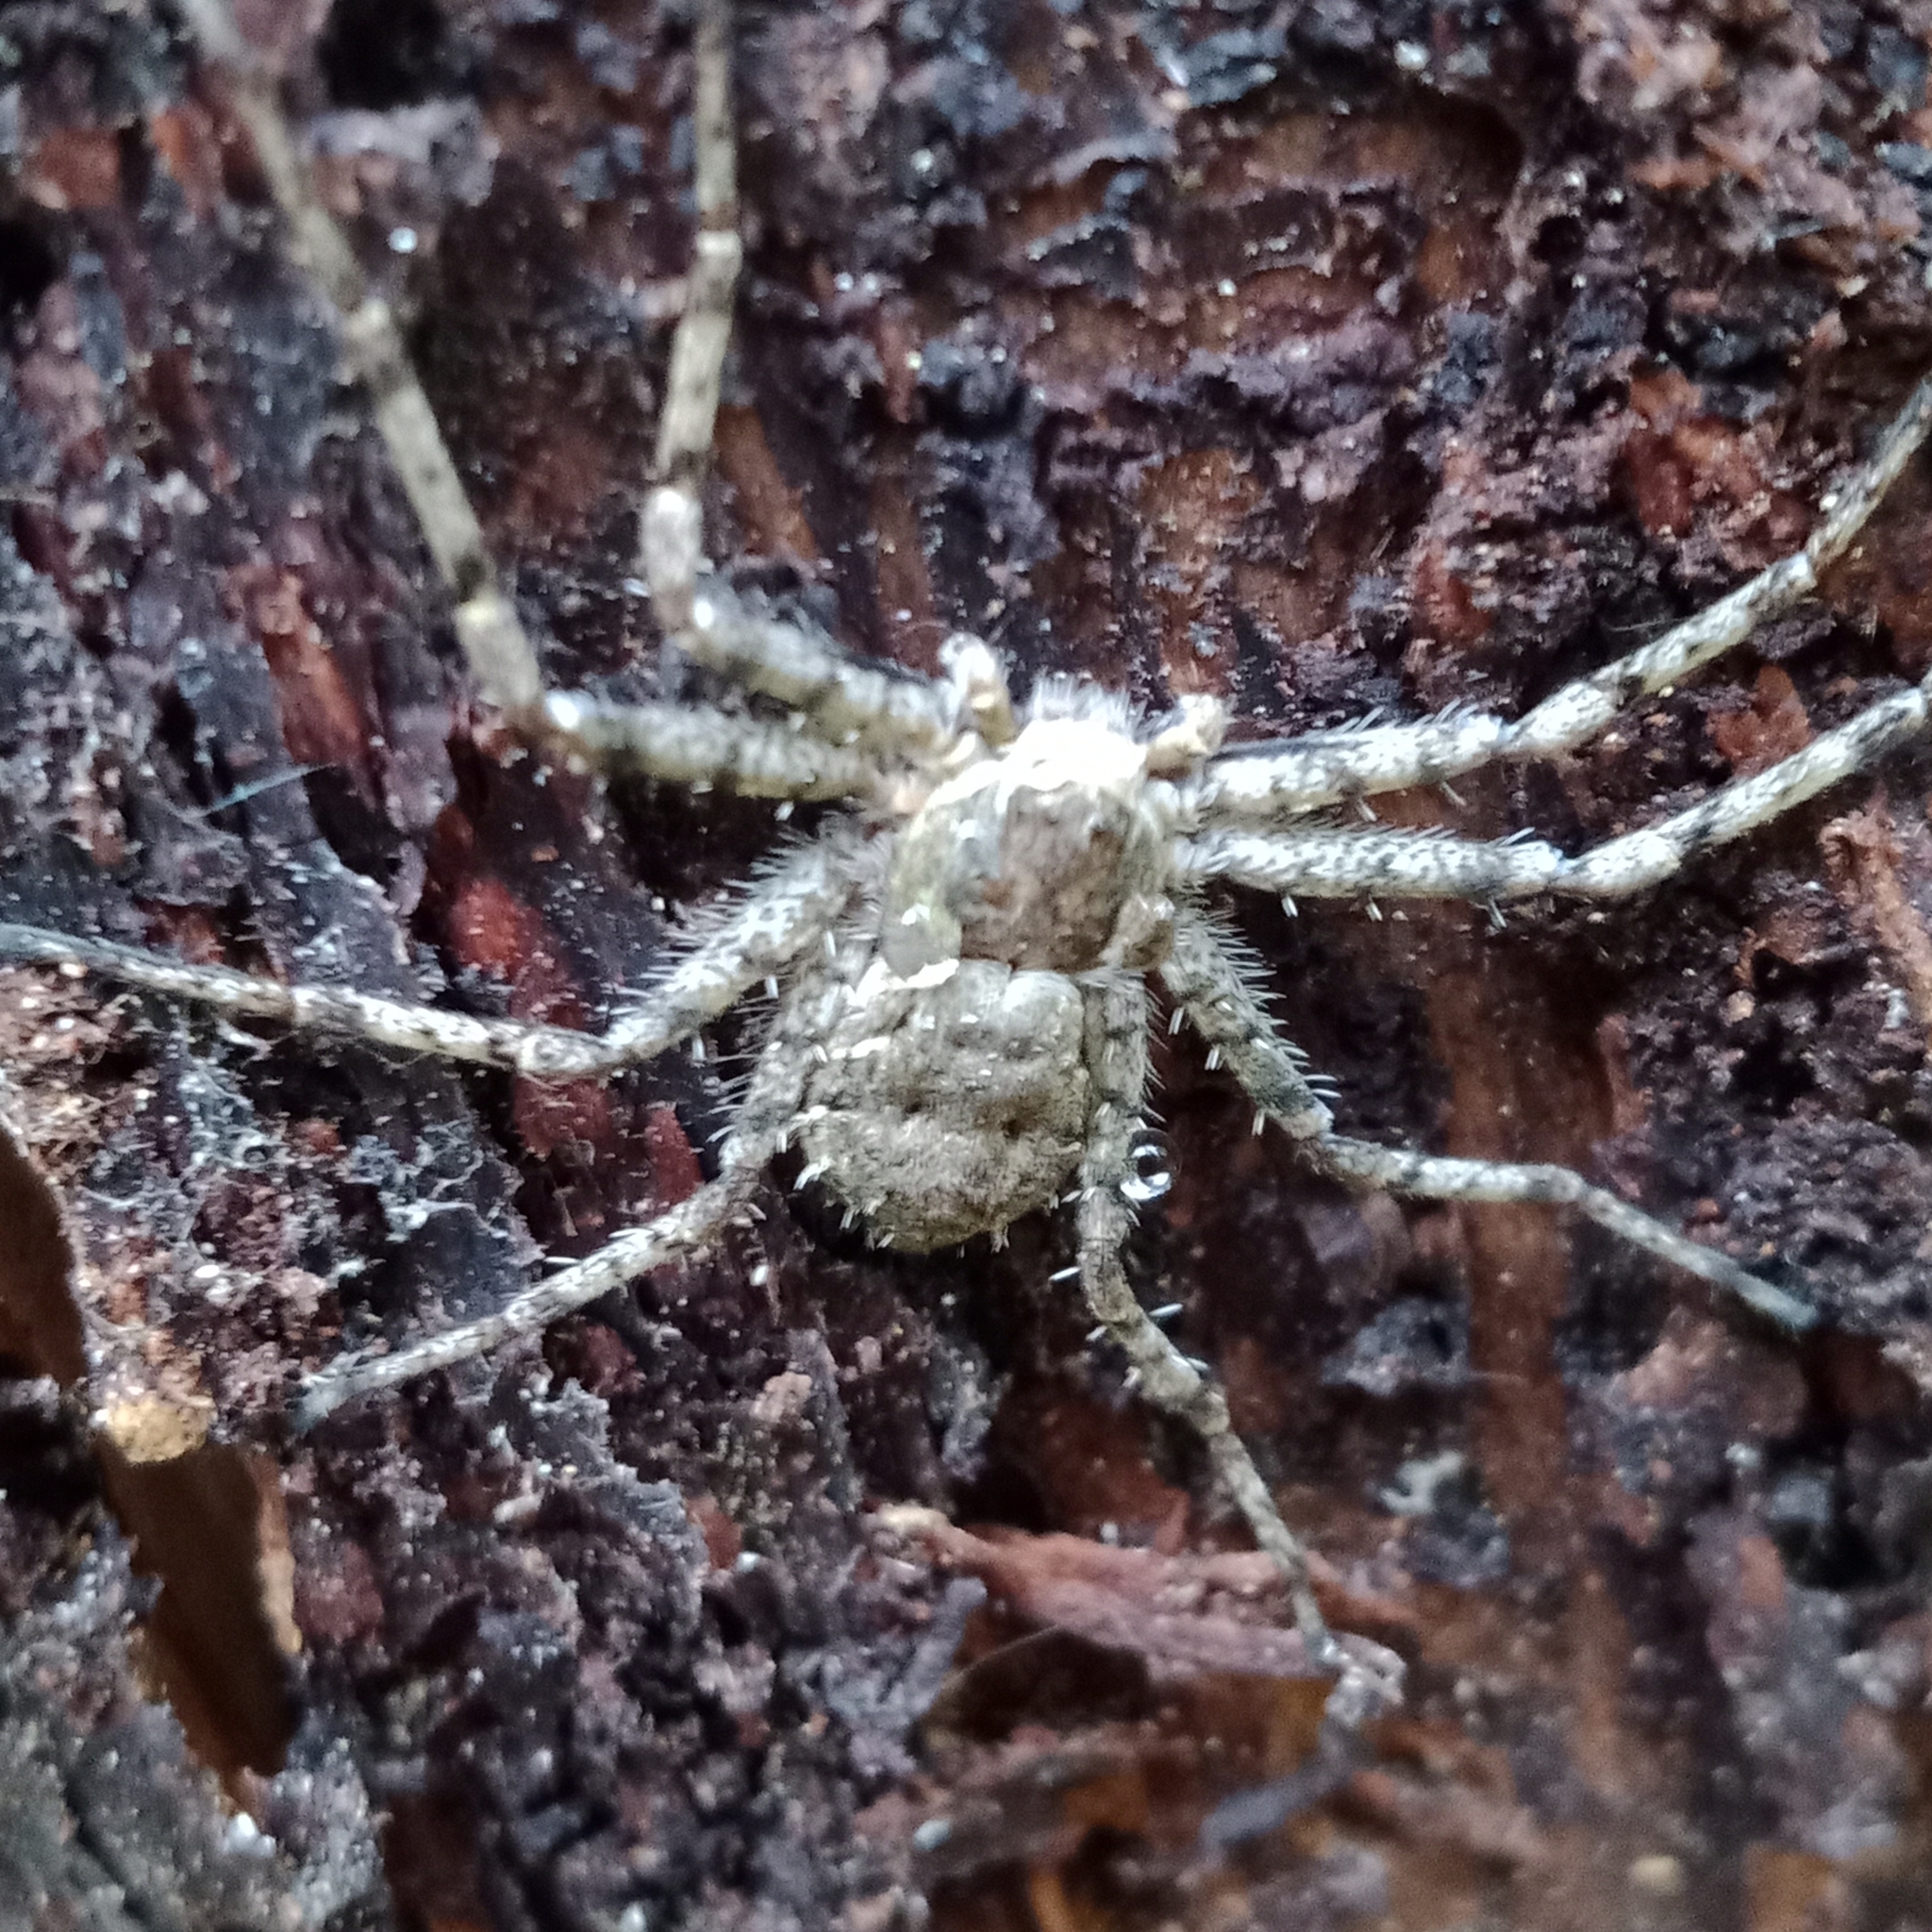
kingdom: Animalia
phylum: Arthropoda
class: Arachnida
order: Araneae
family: Philodromidae
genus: Philodromus
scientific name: Philodromus margaritatus
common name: Lichen running-spider
